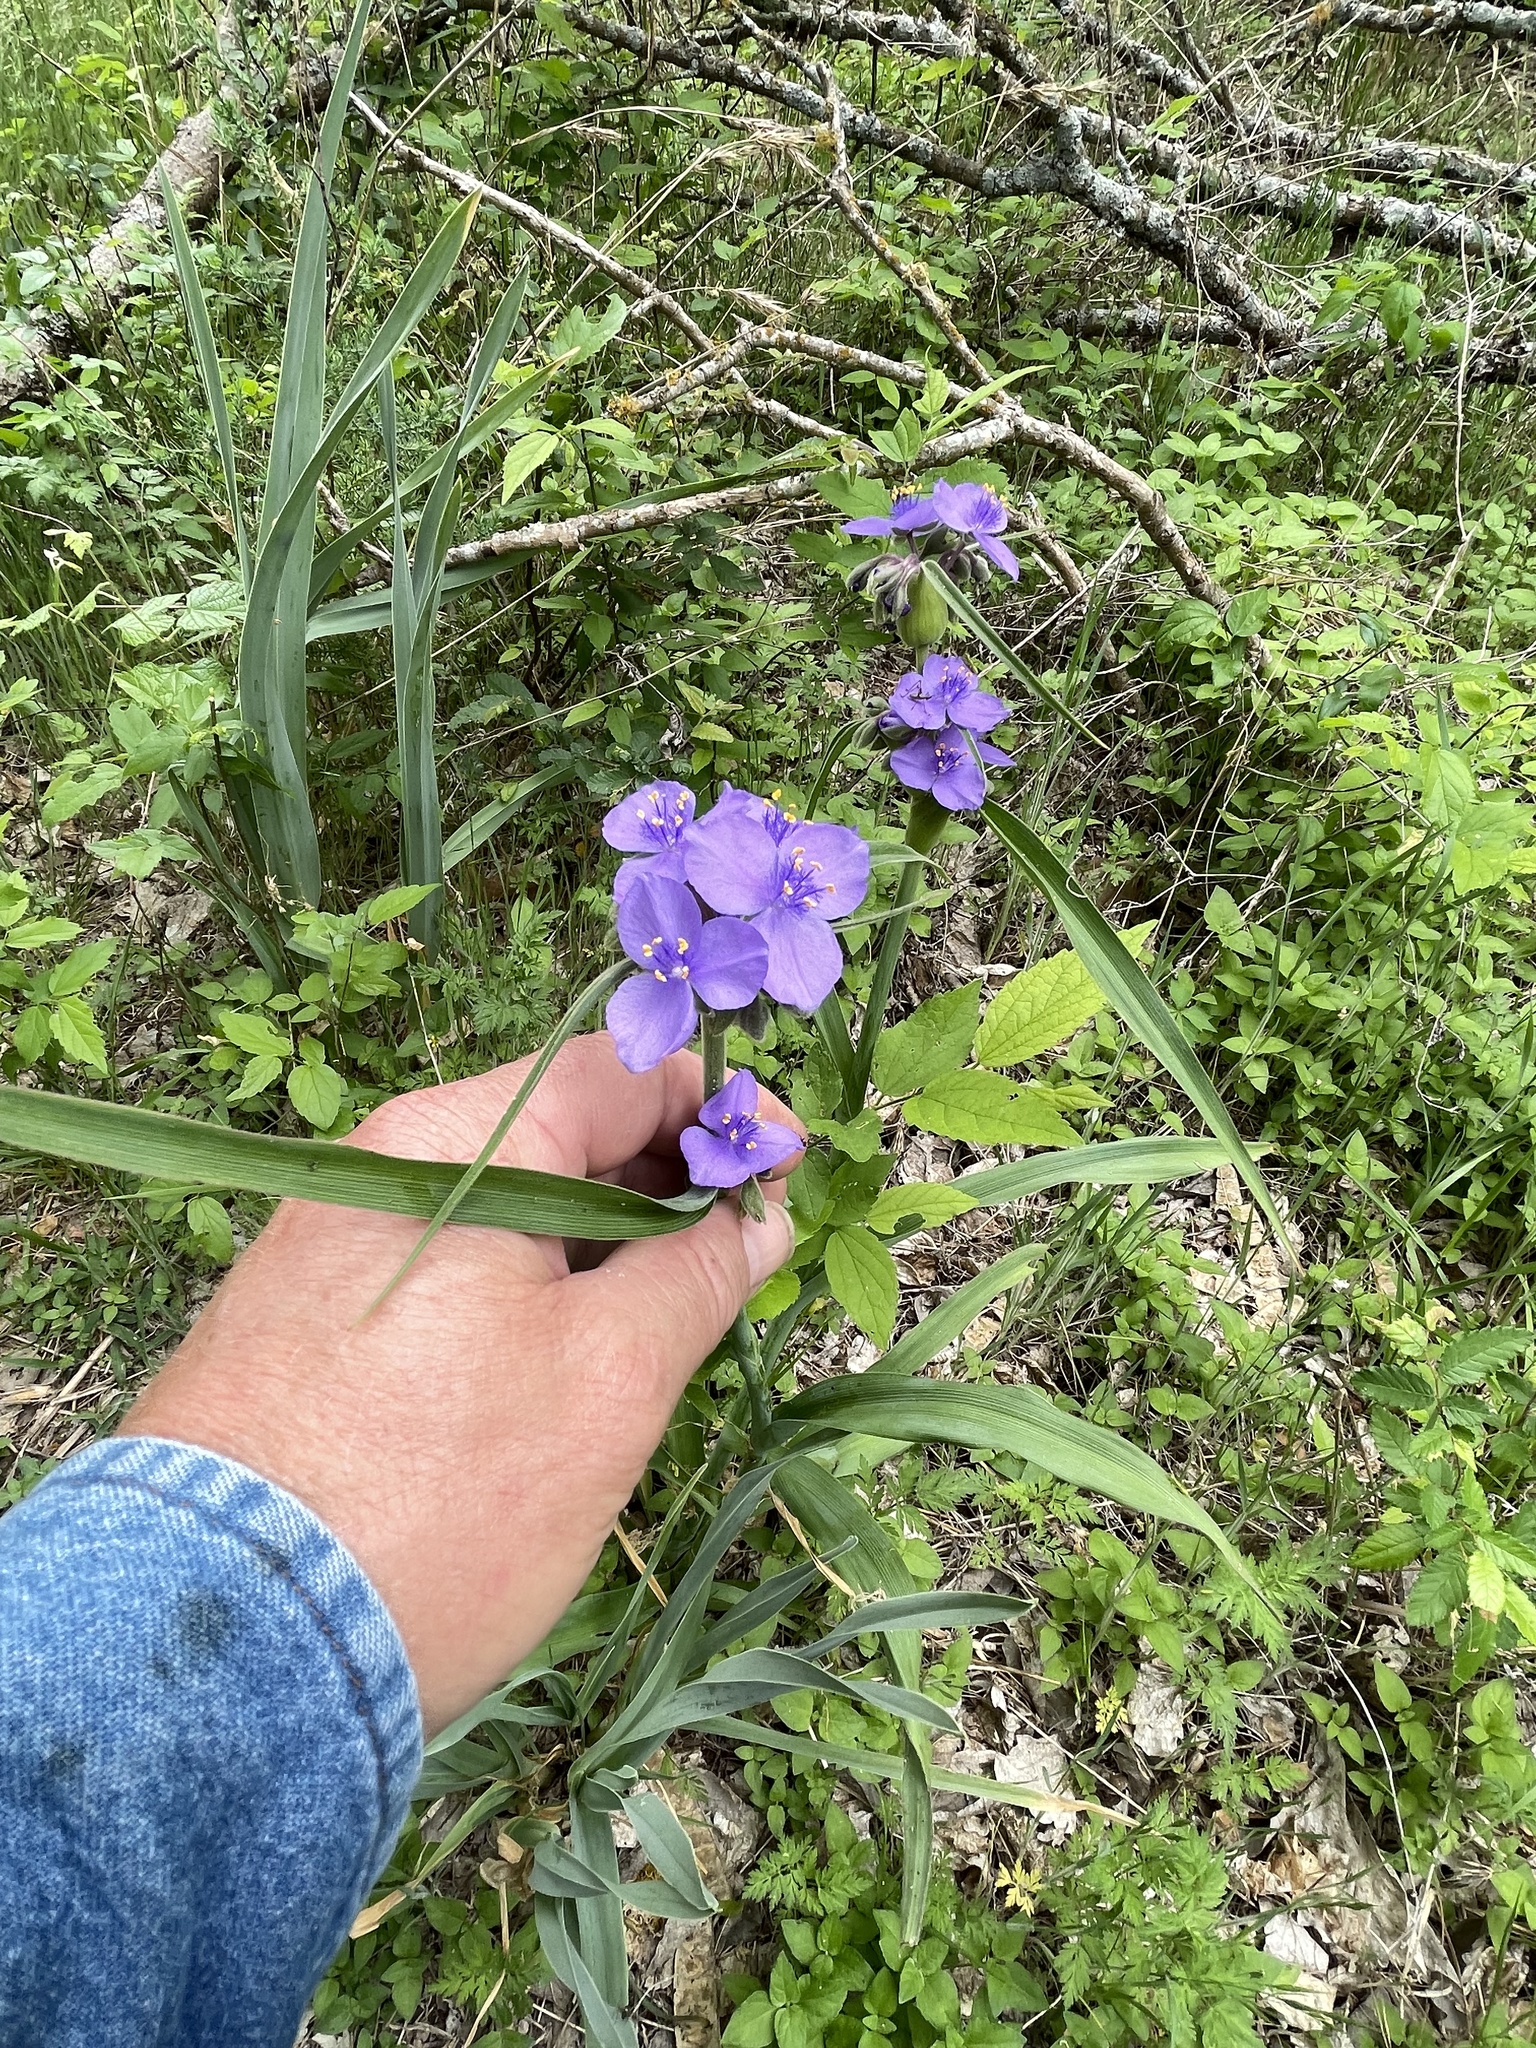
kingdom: Plantae
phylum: Tracheophyta
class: Liliopsida
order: Commelinales
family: Commelinaceae
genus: Tradescantia
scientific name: Tradescantia gigantea
